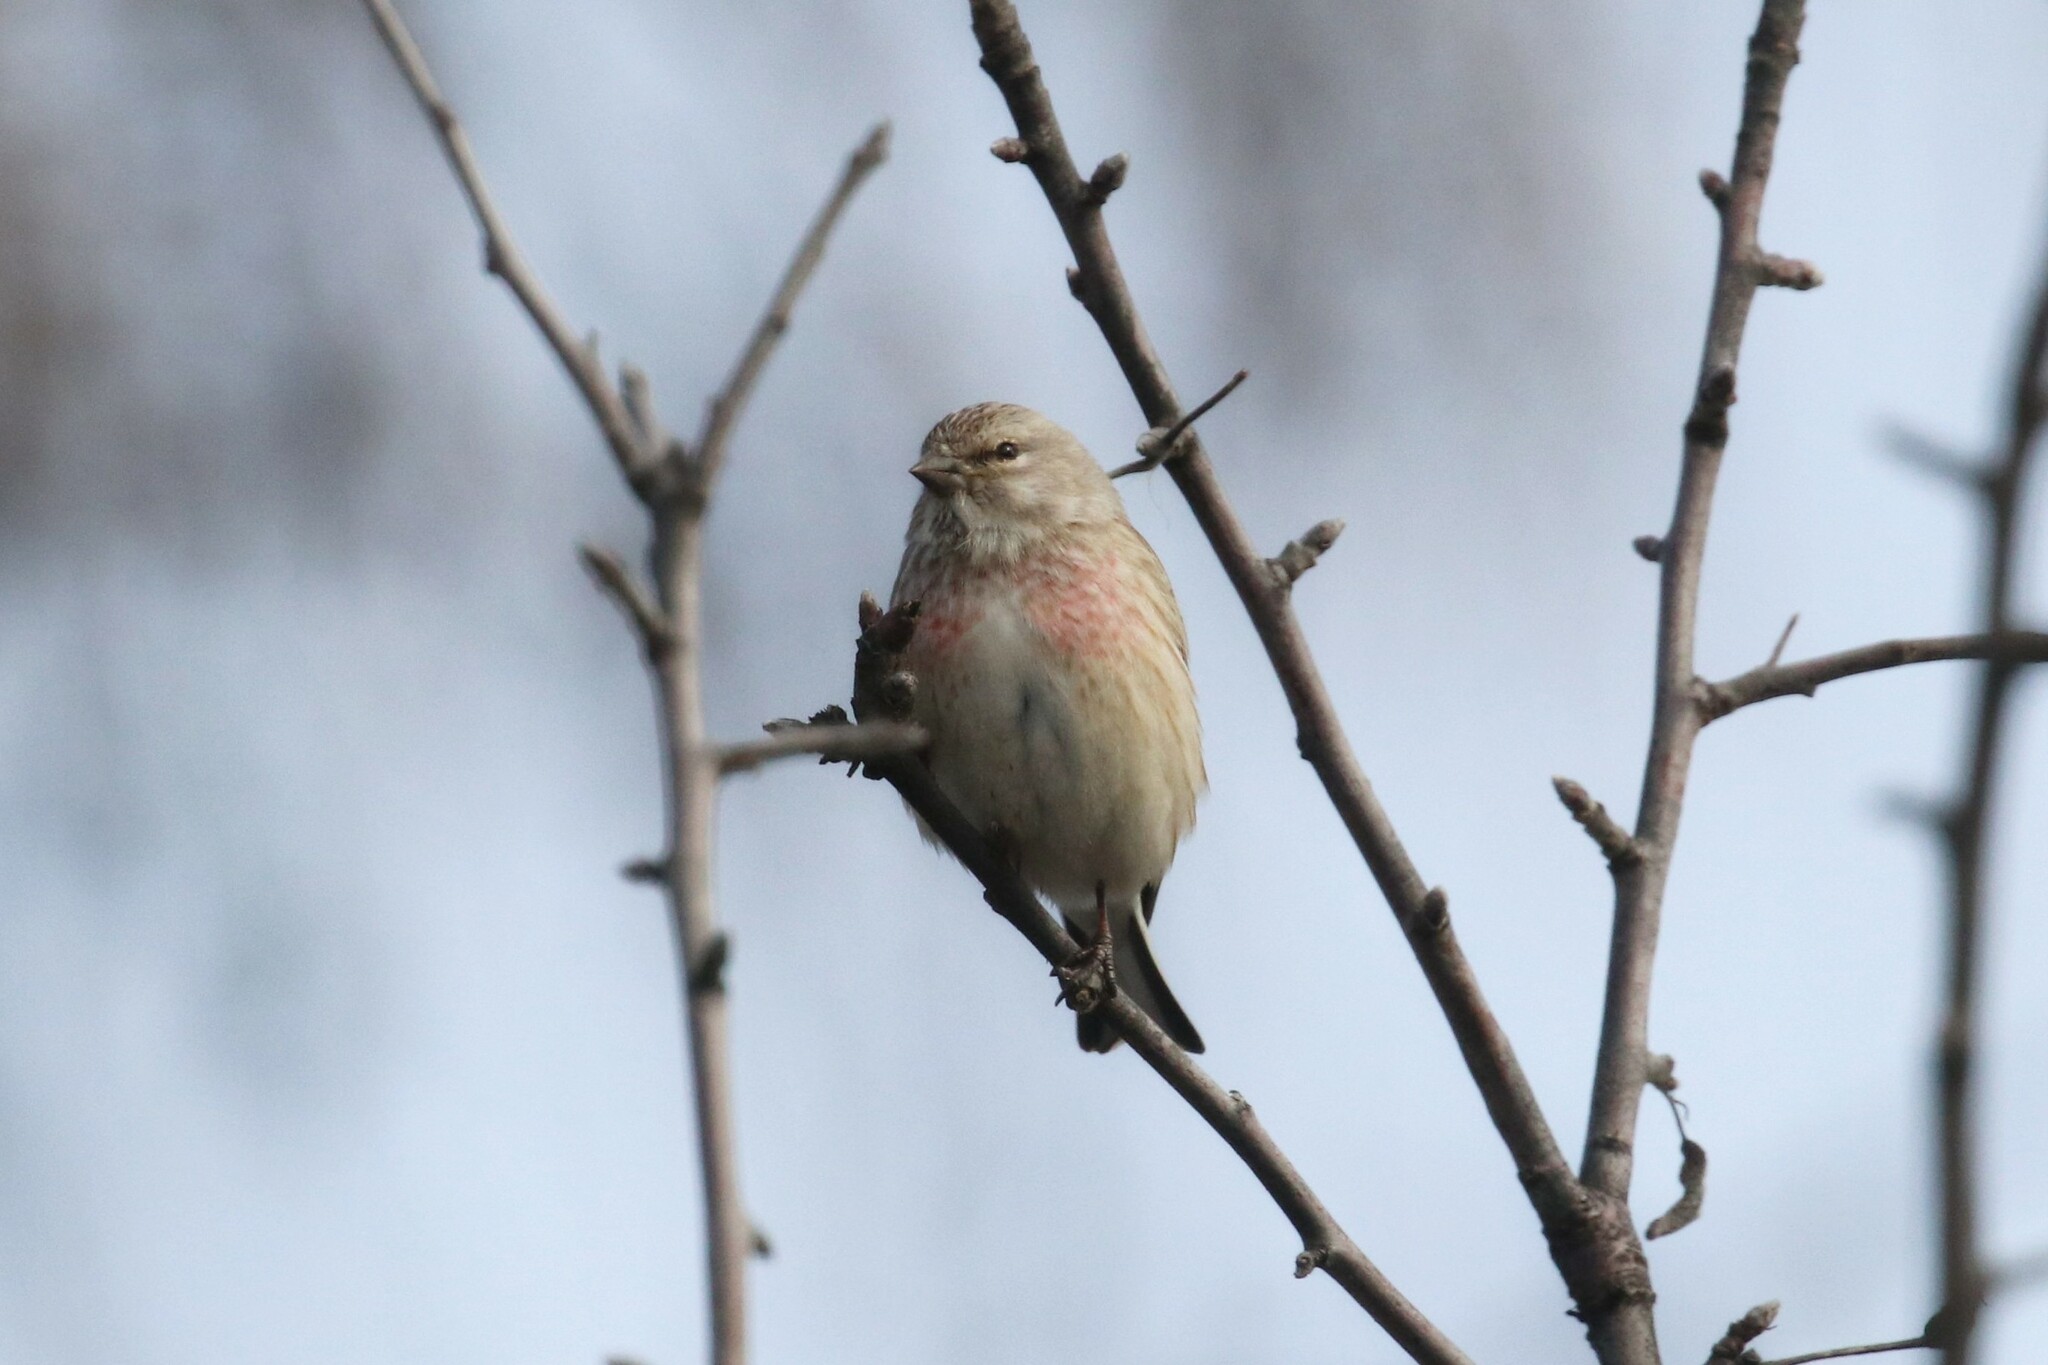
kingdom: Animalia
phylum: Chordata
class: Aves
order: Passeriformes
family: Fringillidae
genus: Linaria
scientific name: Linaria cannabina
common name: Common linnet
